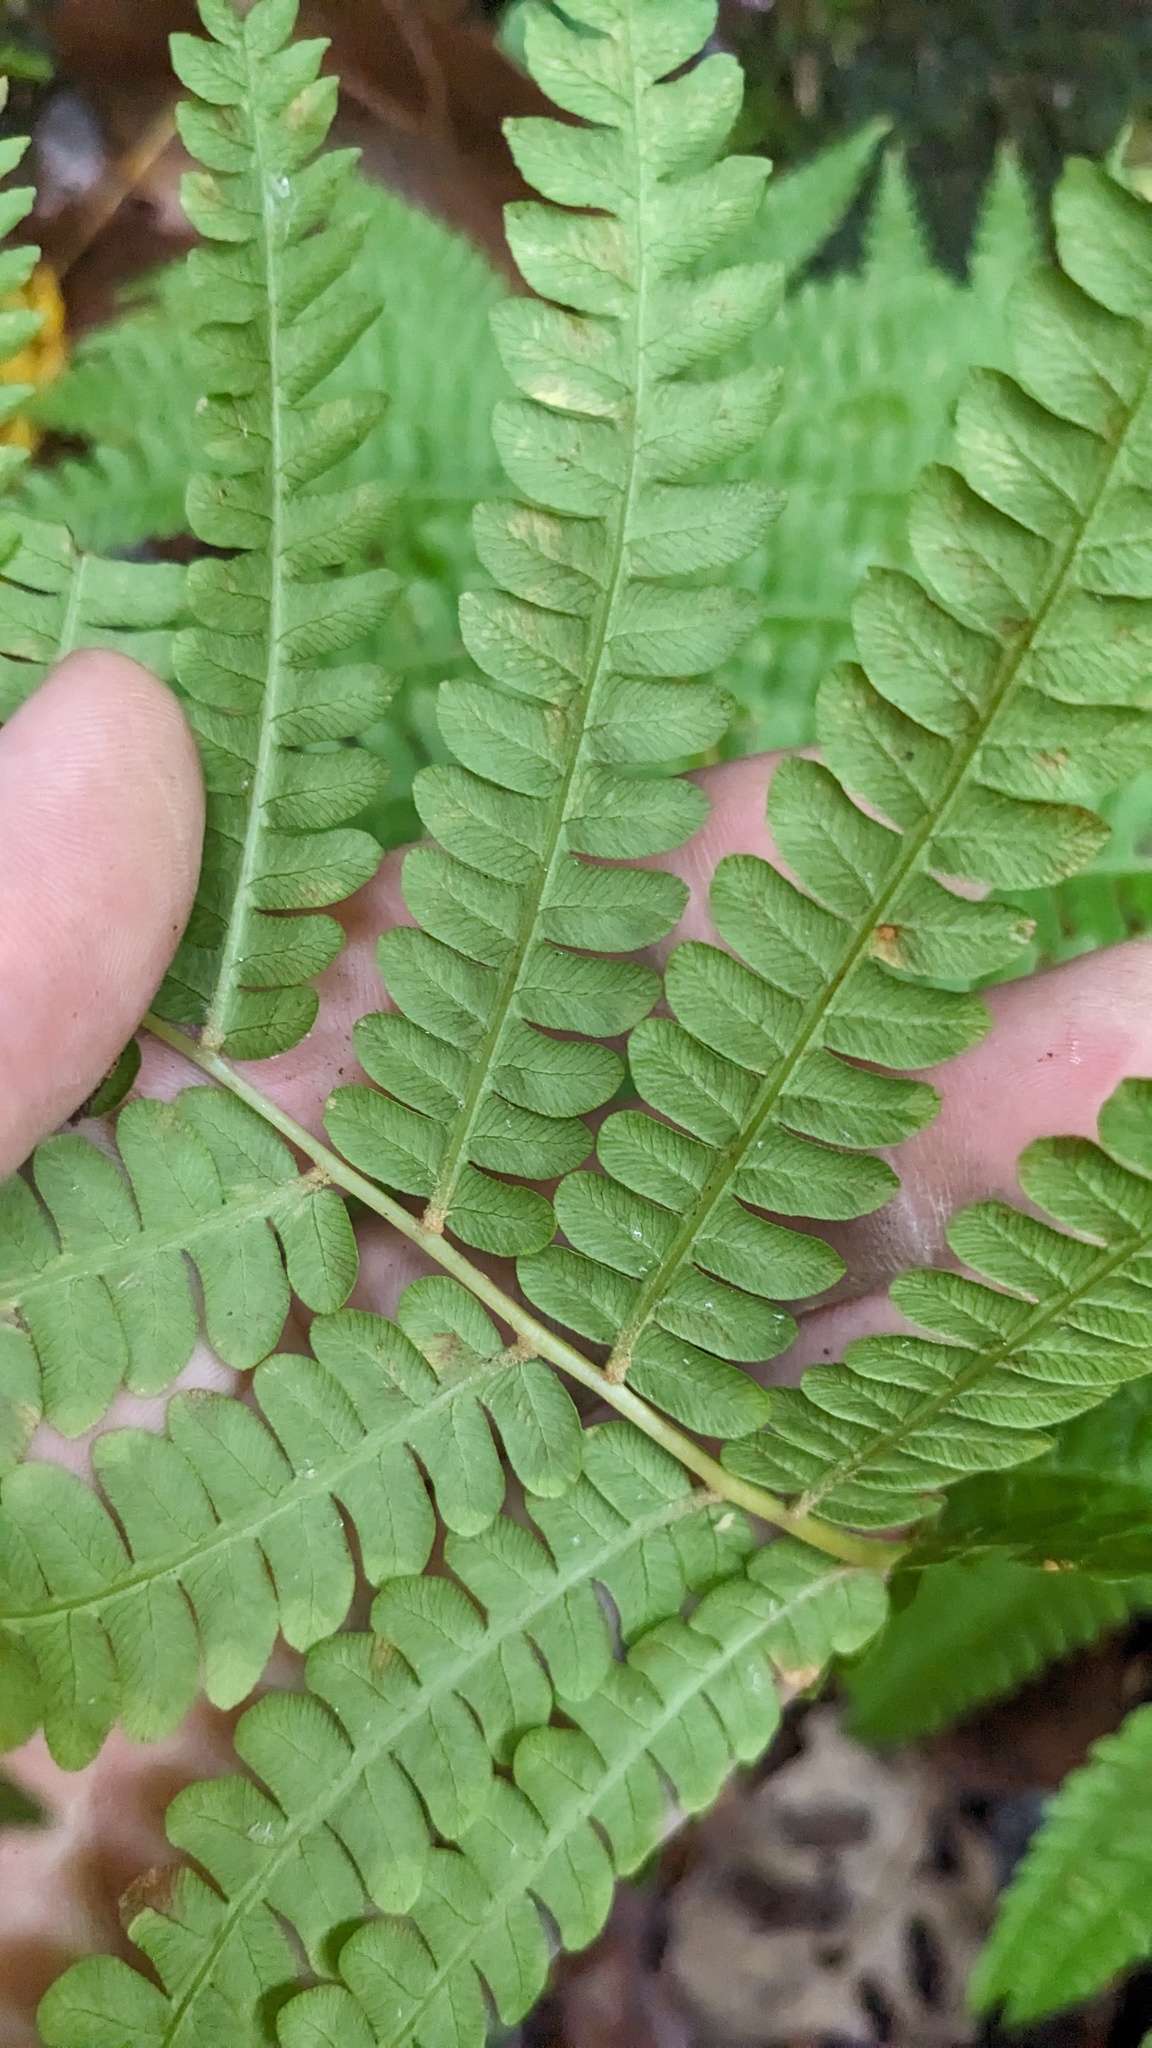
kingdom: Plantae
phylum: Tracheophyta
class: Polypodiopsida
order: Osmundales
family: Osmundaceae
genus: Osmundastrum
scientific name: Osmundastrum cinnamomeum
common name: Cinnamon fern
